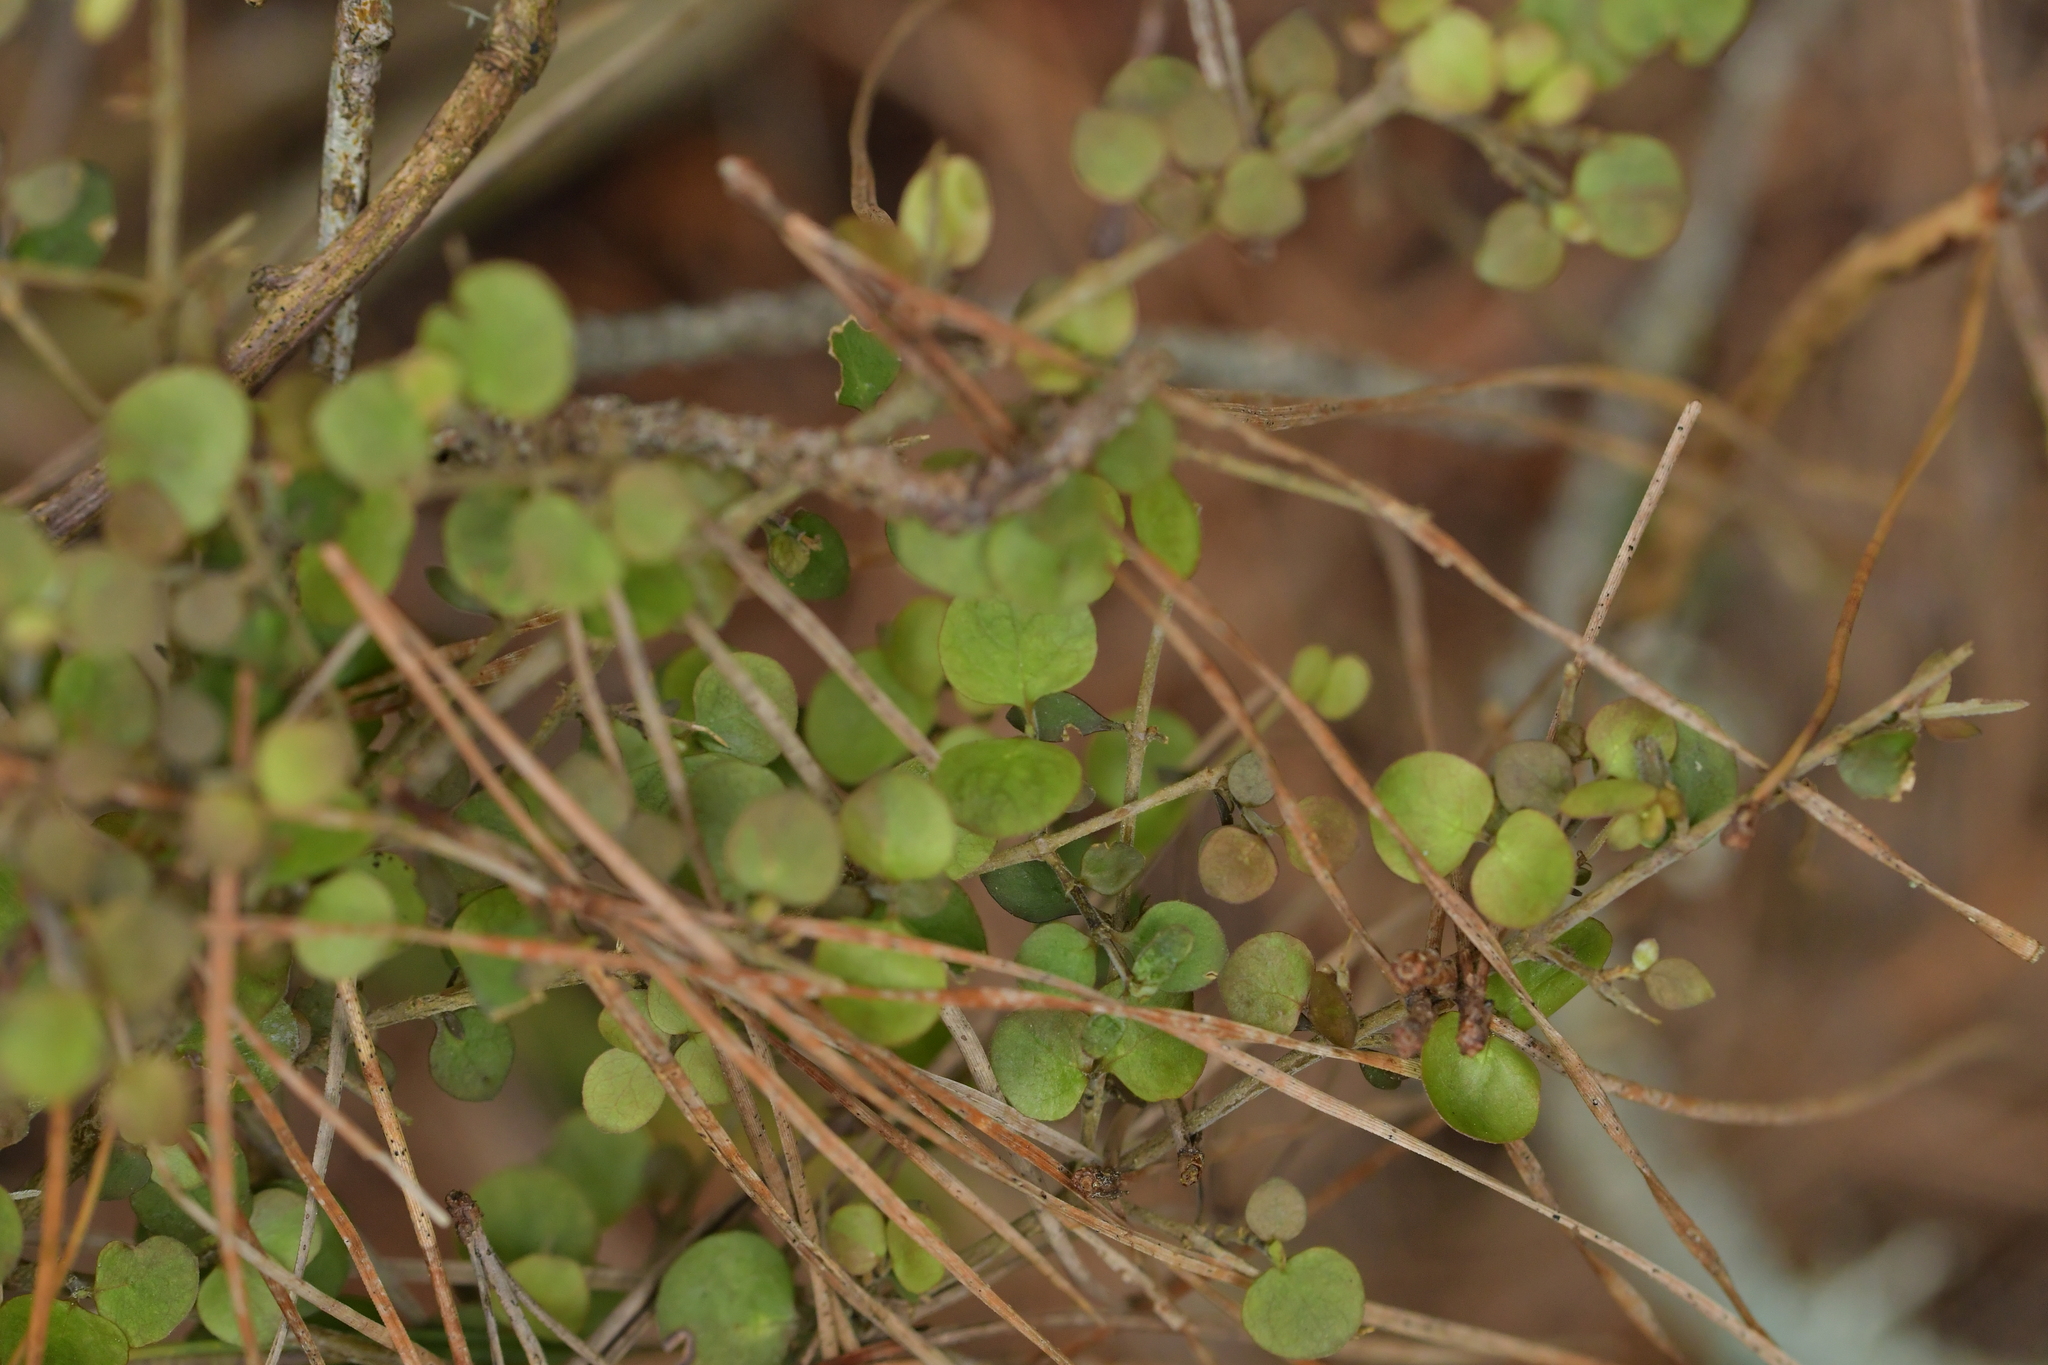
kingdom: Plantae
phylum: Tracheophyta
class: Magnoliopsida
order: Gentianales
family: Rubiaceae
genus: Coprosma
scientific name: Coprosma rhamnoides
